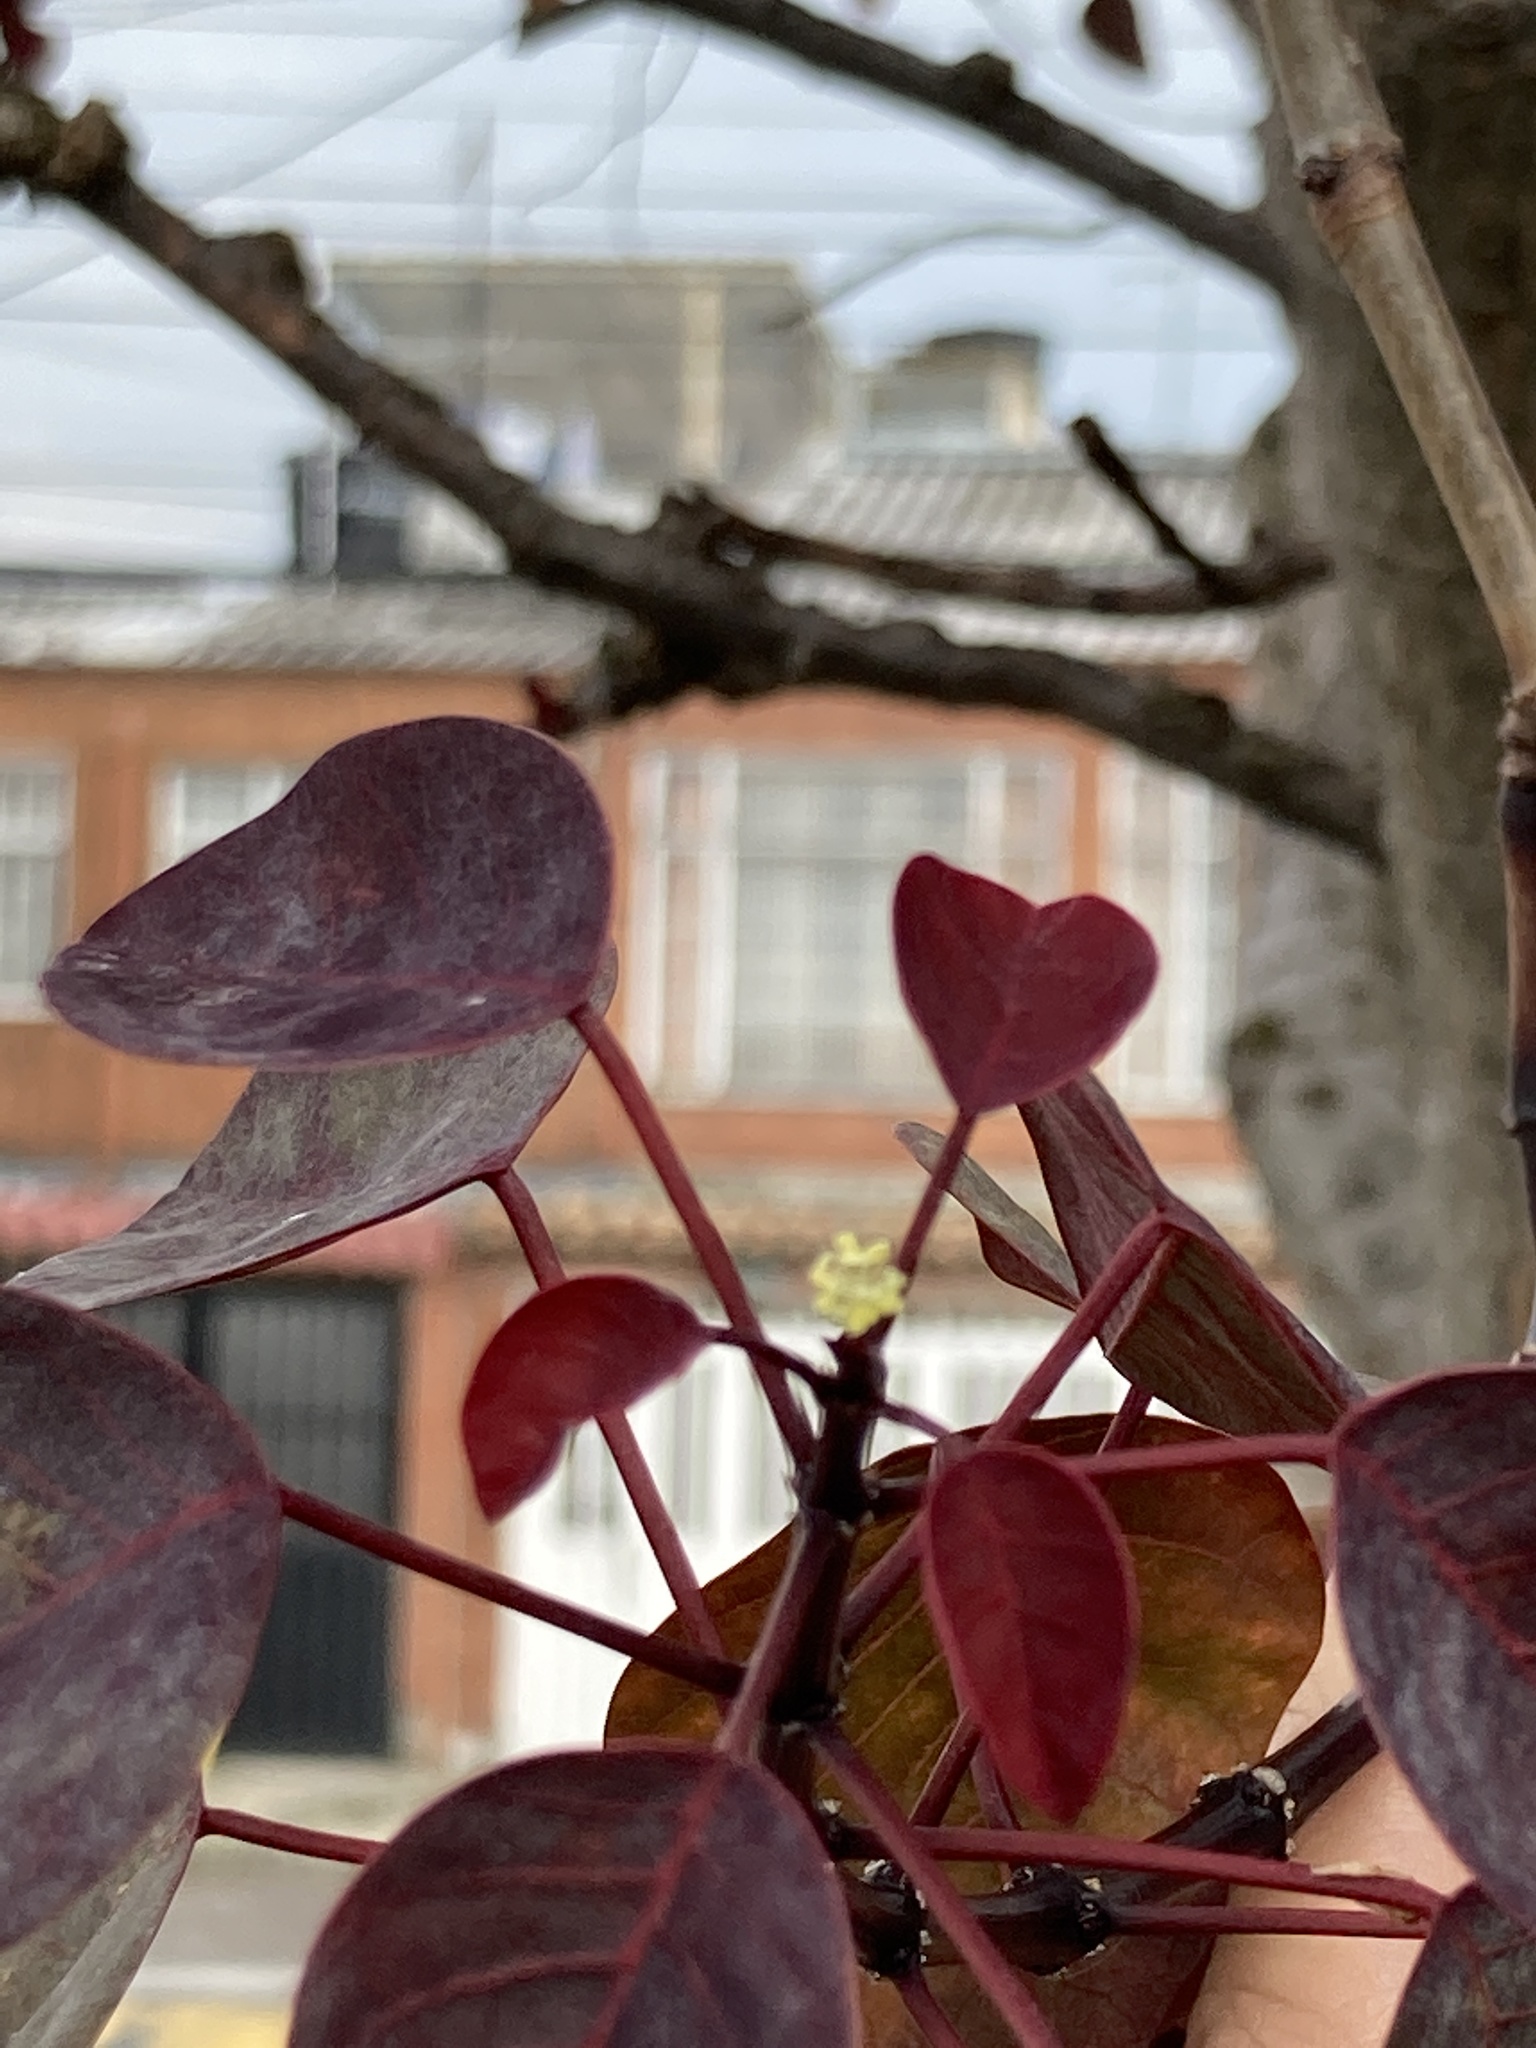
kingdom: Plantae
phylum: Tracheophyta
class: Magnoliopsida
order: Malpighiales
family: Euphorbiaceae
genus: Euphorbia
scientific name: Euphorbia cotinifolia
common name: Tropical smokebush
